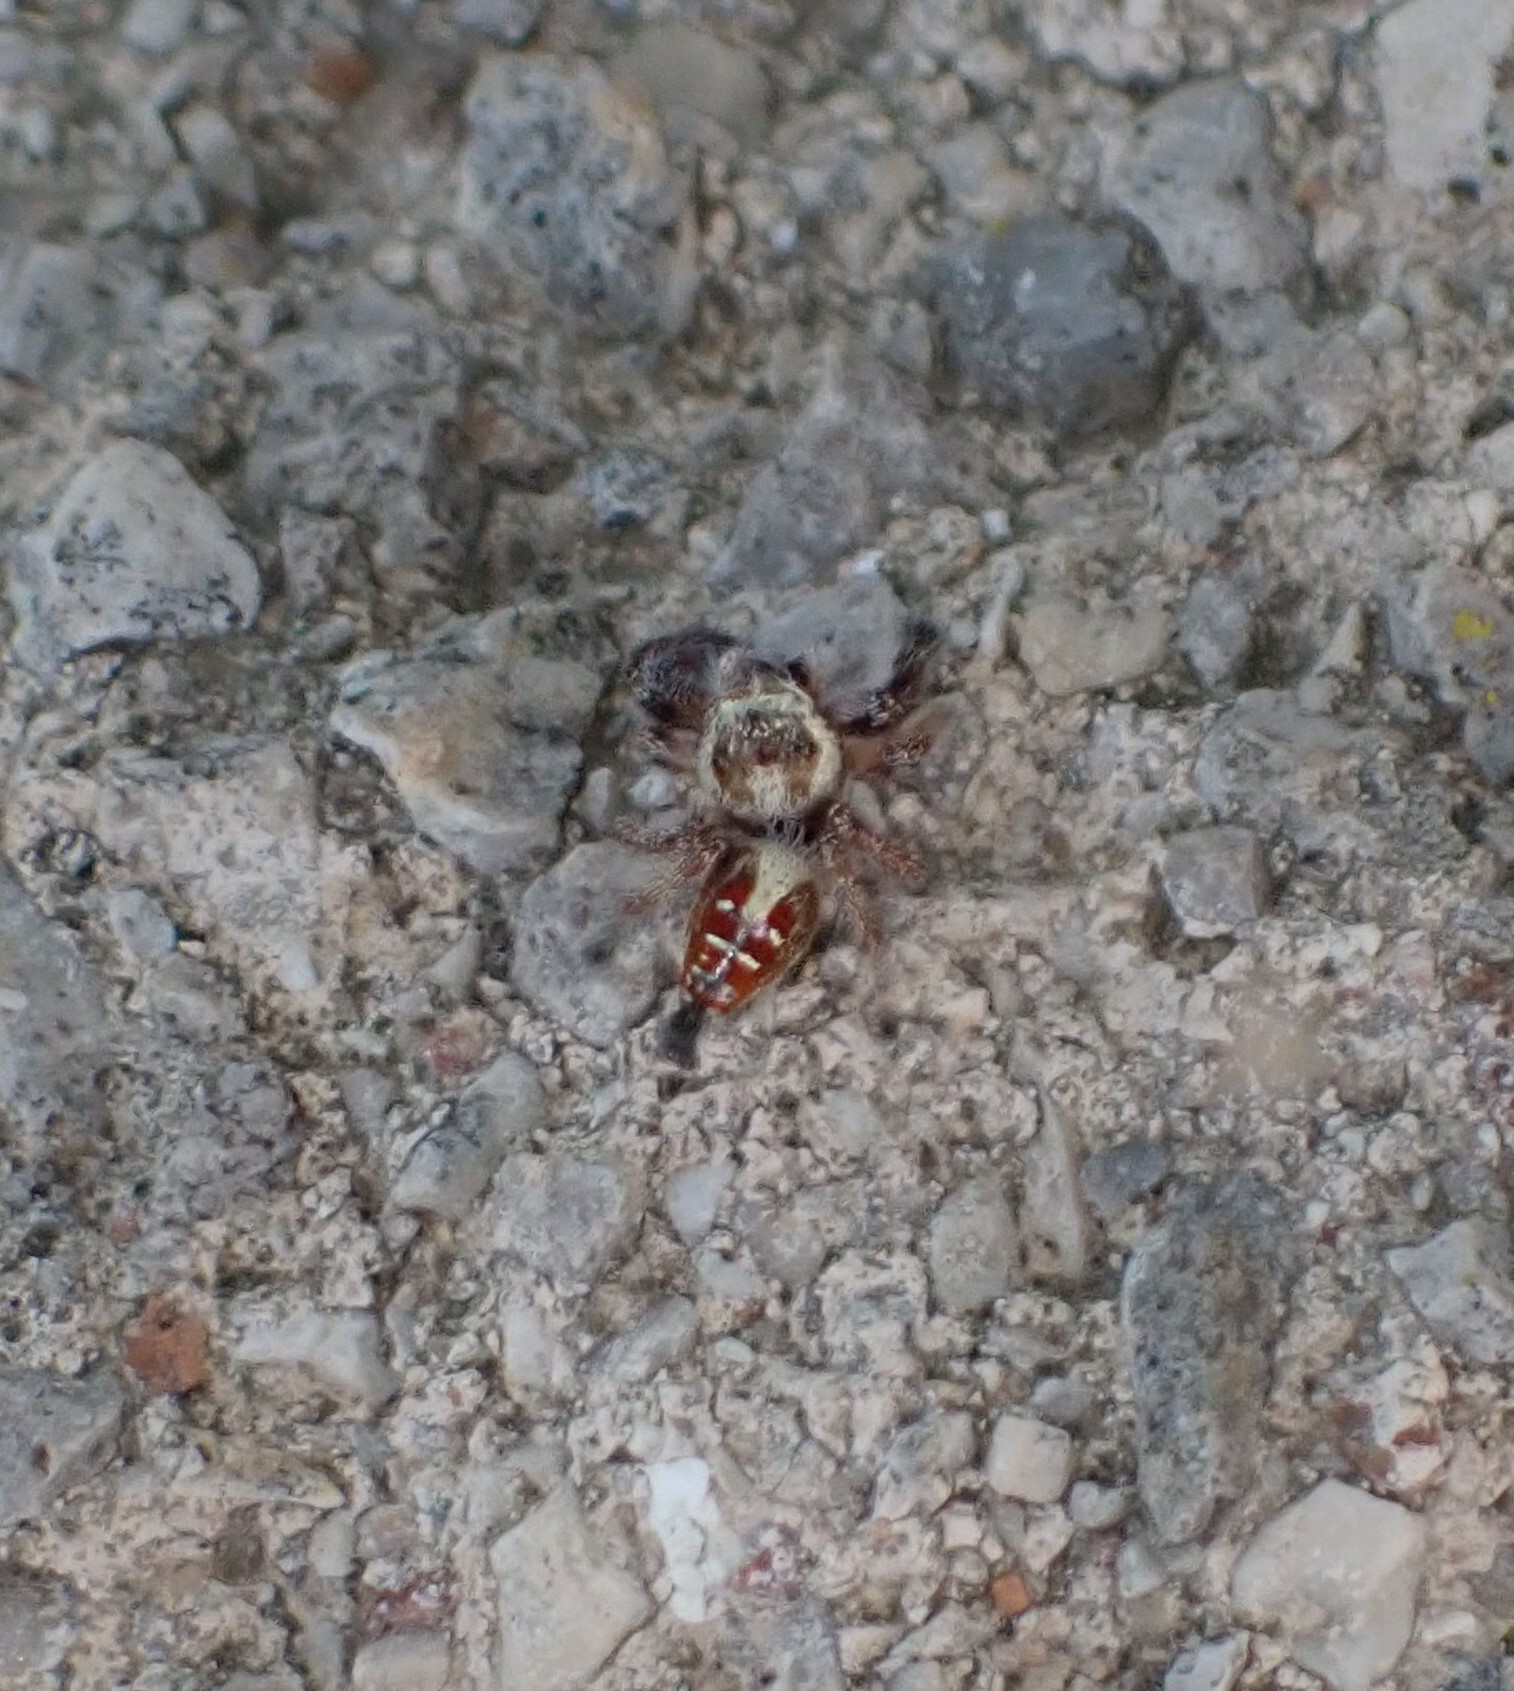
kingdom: Animalia
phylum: Arthropoda
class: Arachnida
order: Araneae
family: Salticidae
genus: Thyene
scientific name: Thyene imperialis
